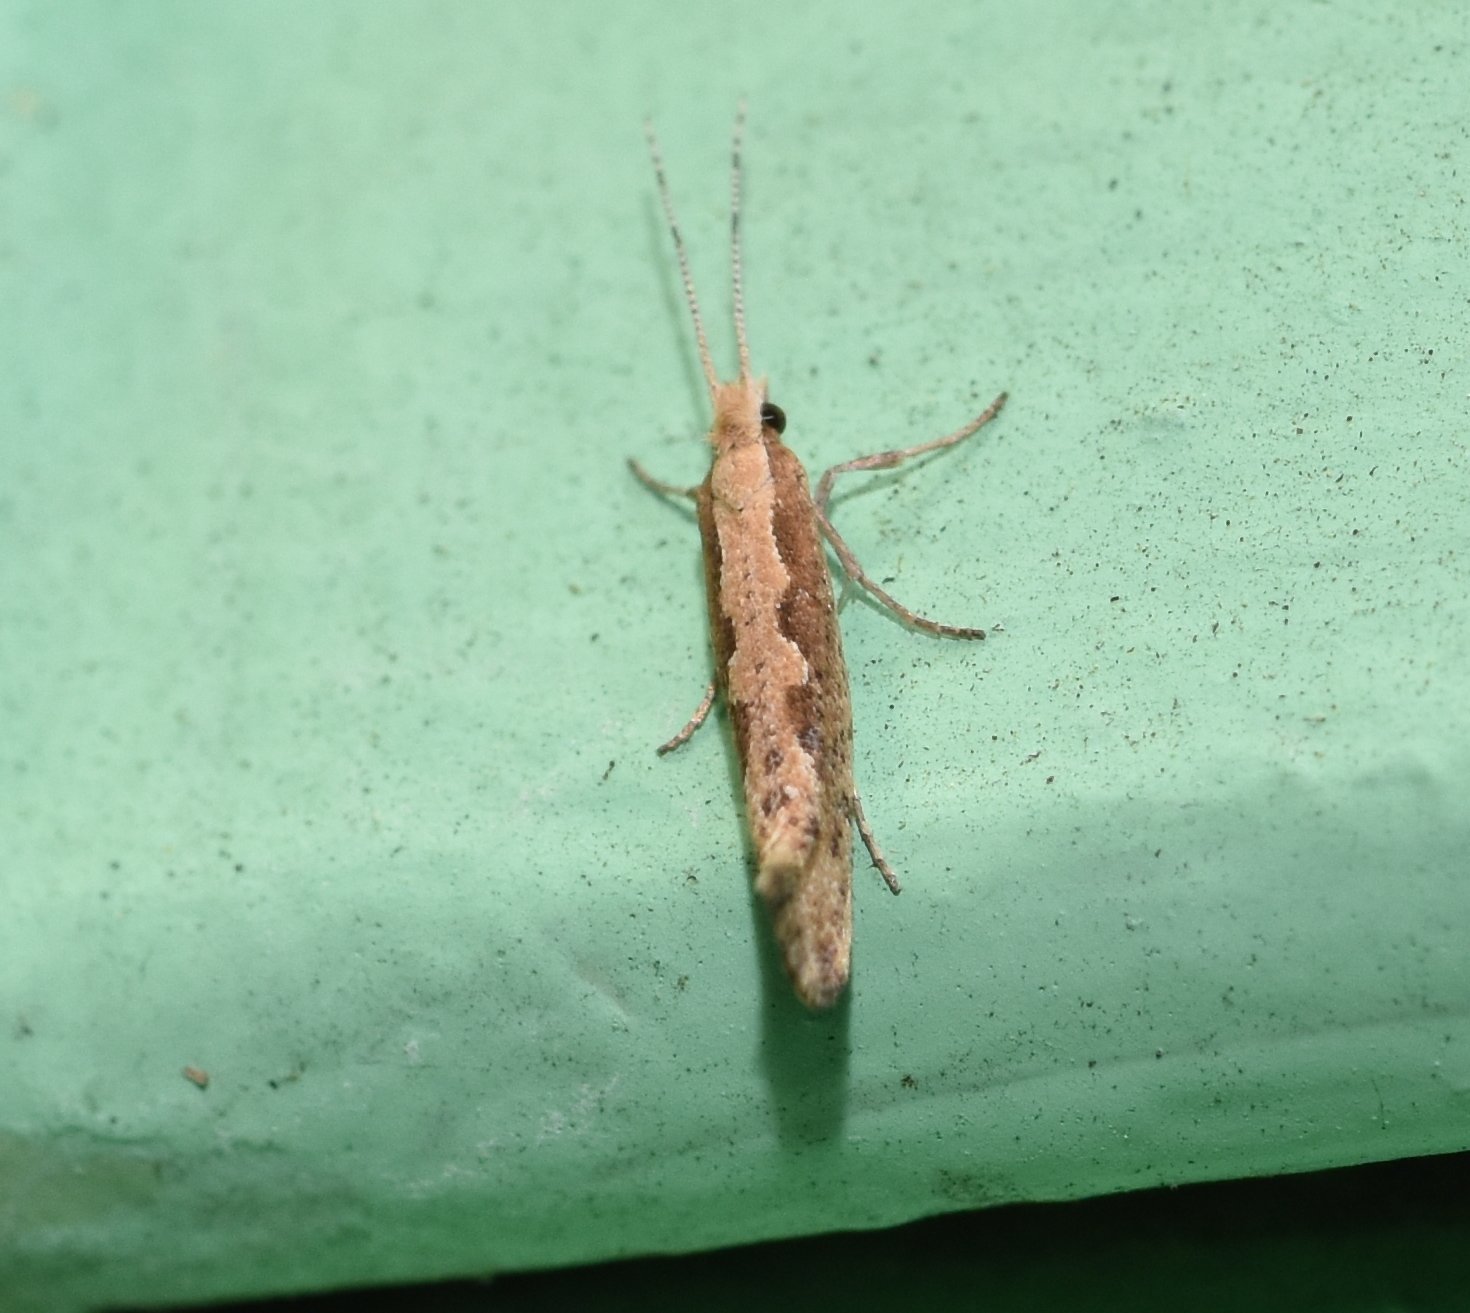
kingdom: Animalia
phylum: Arthropoda
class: Insecta
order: Lepidoptera
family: Plutellidae
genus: Plutella
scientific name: Plutella xylostella
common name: Diamond-back moth
